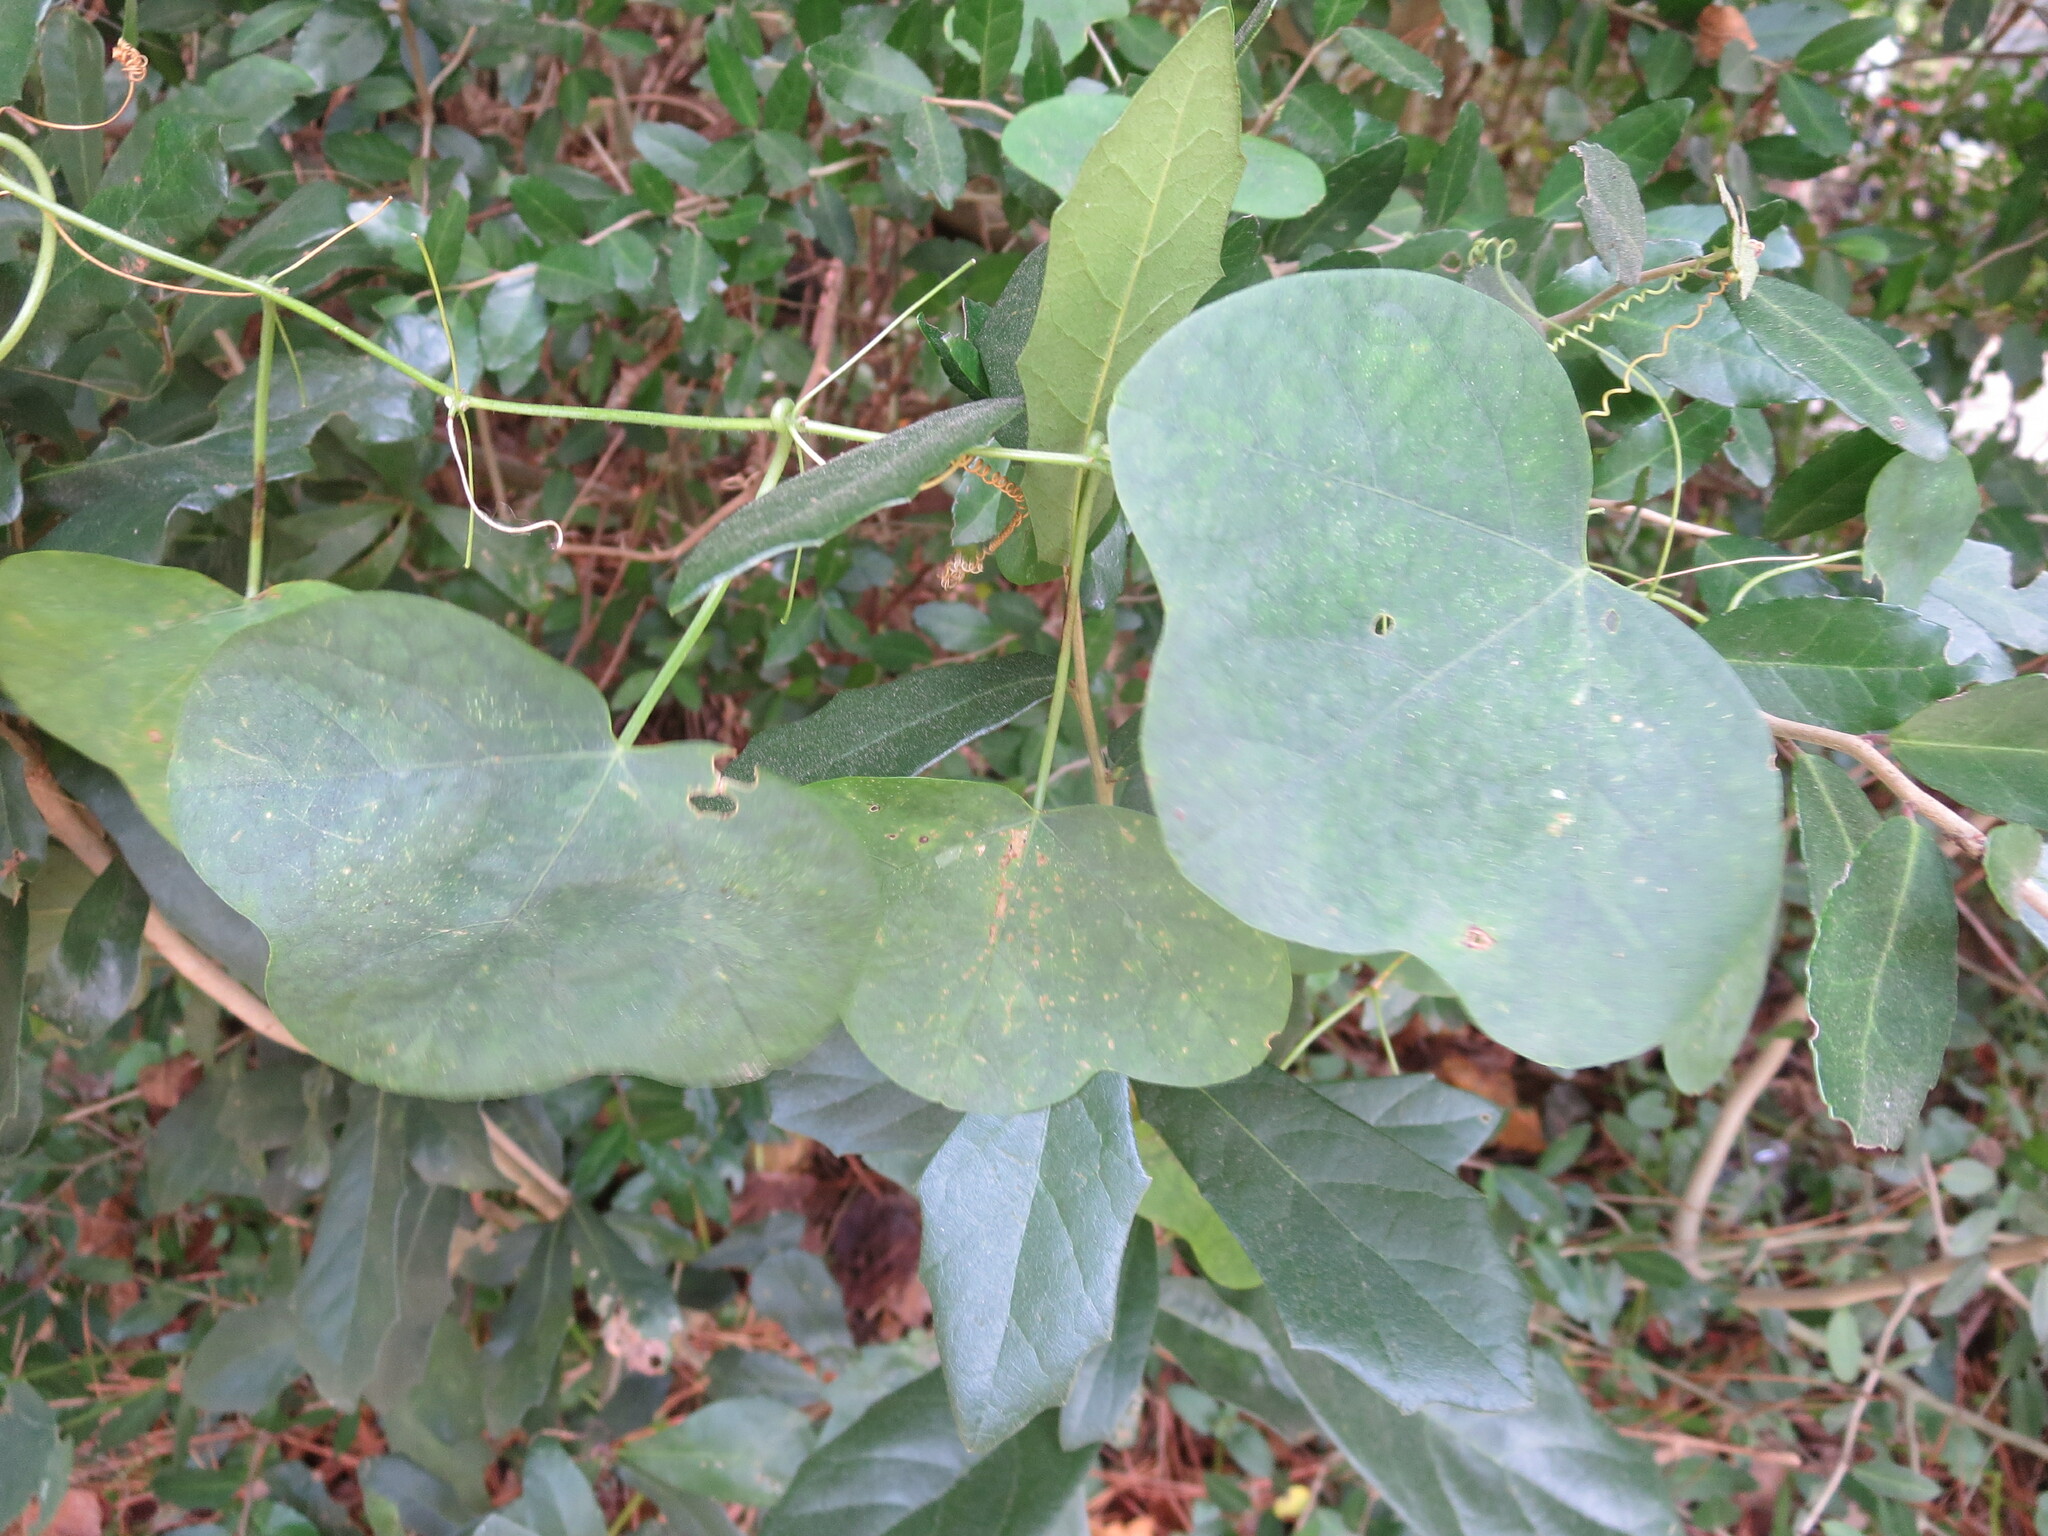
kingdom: Plantae
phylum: Tracheophyta
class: Magnoliopsida
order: Malpighiales
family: Passifloraceae
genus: Passiflora
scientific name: Passiflora lutea
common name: Yellow passionflower
